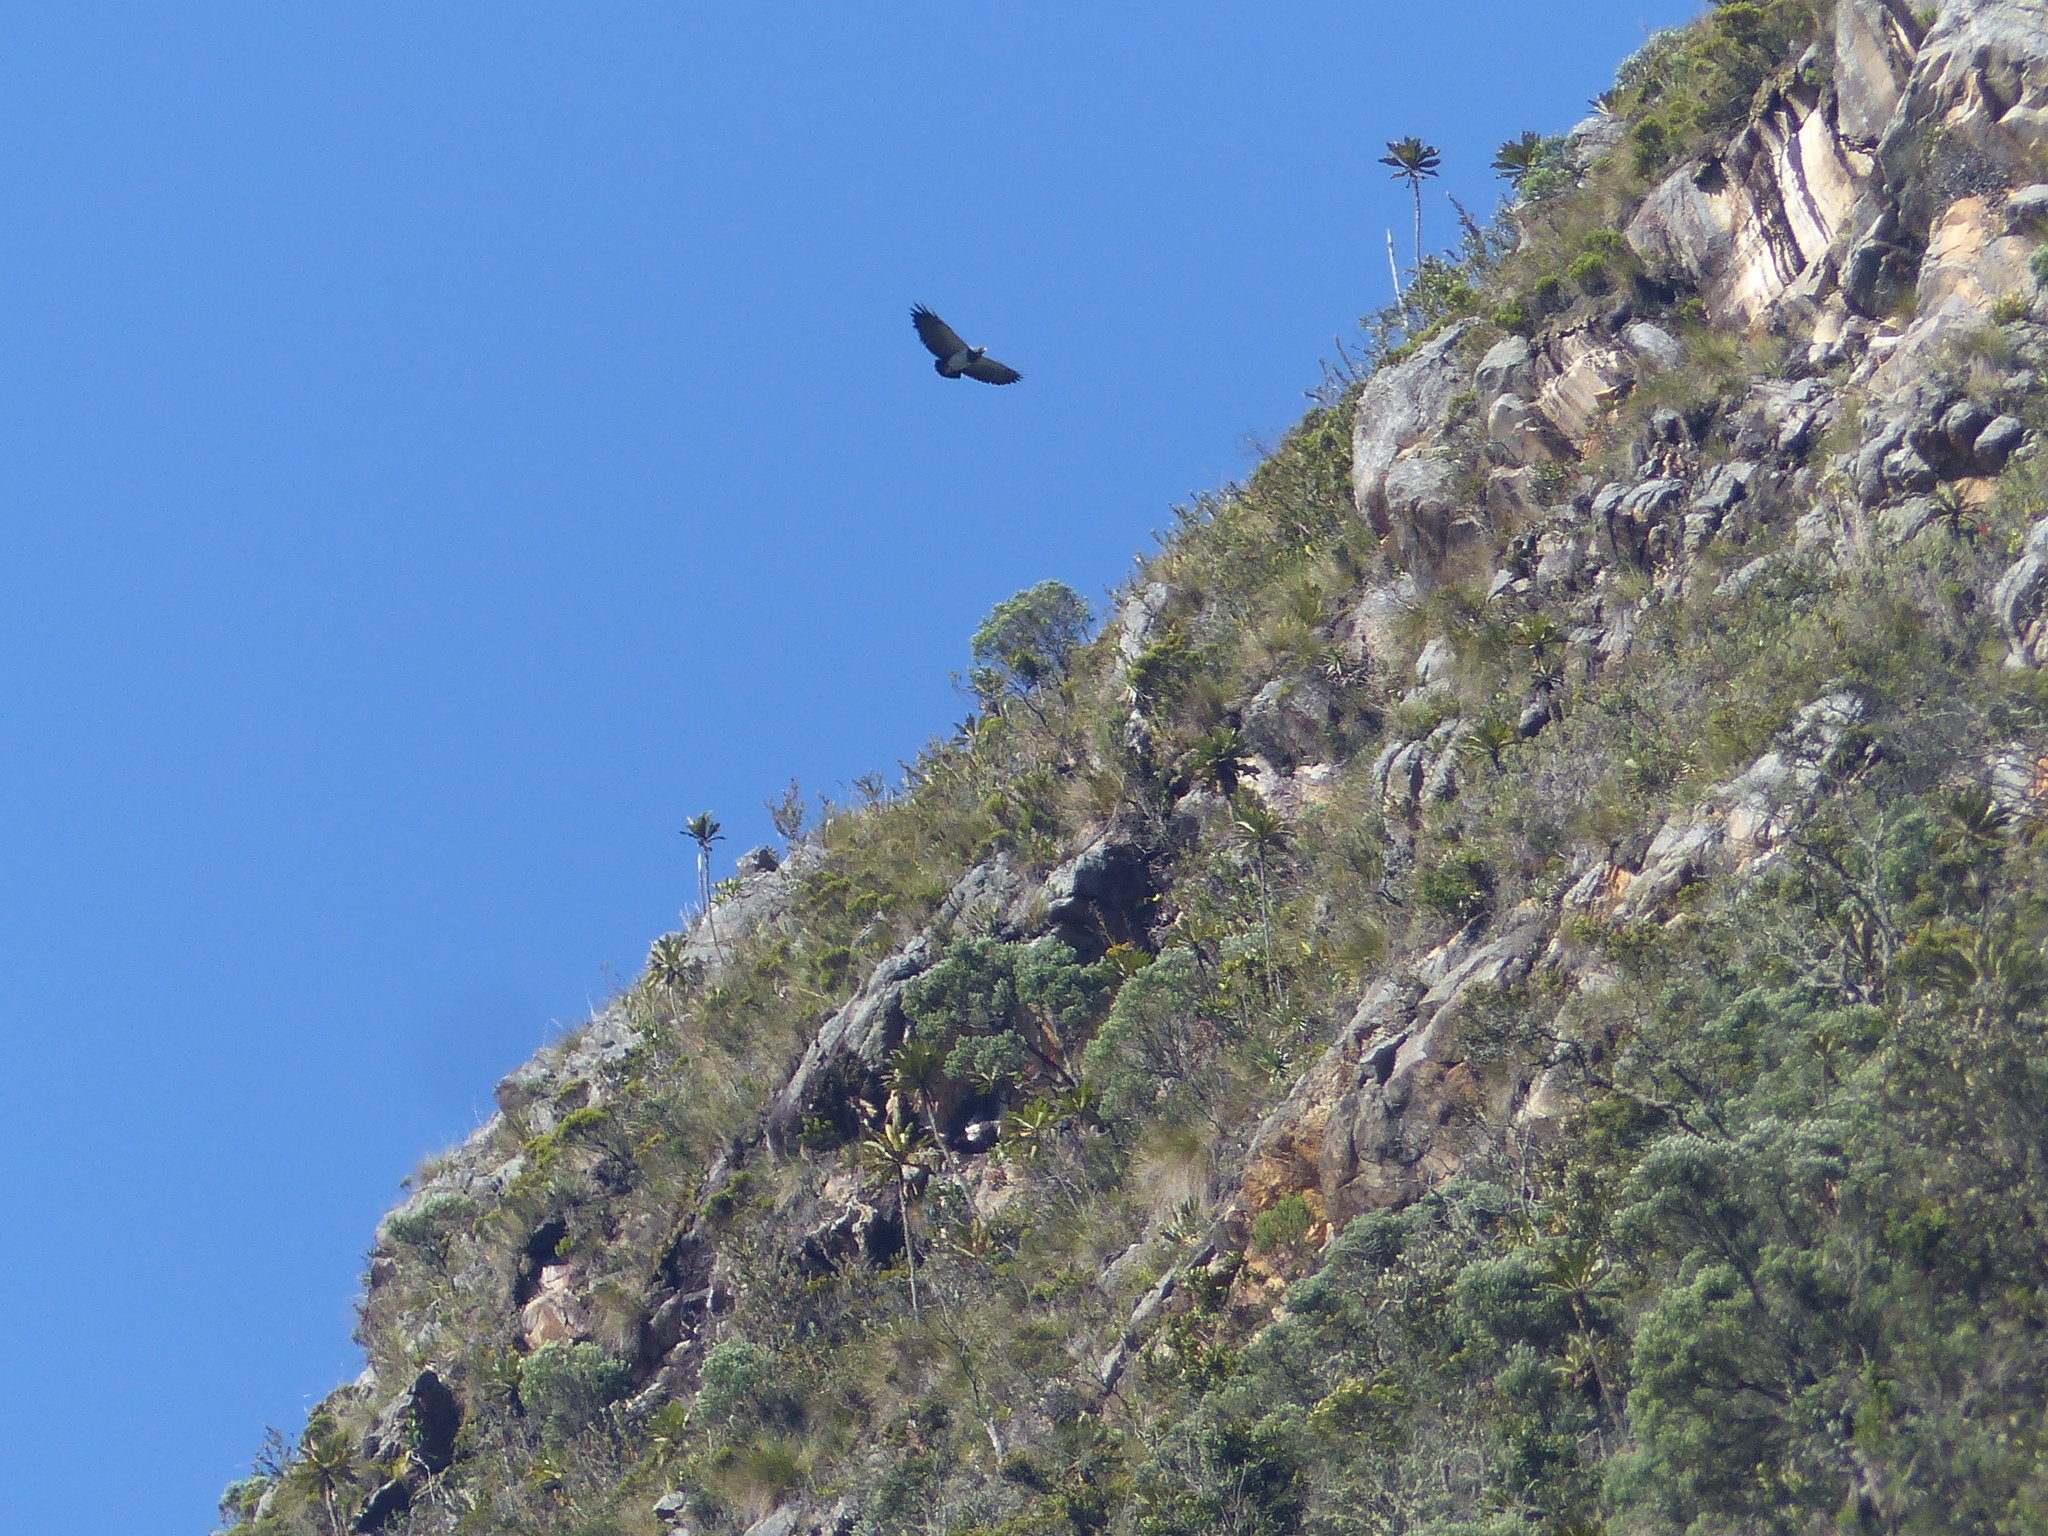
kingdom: Animalia
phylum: Chordata
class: Aves
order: Accipitriformes
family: Accipitridae
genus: Geranoaetus
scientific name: Geranoaetus melanoleucus
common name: Black-chested buzzard-eagle
